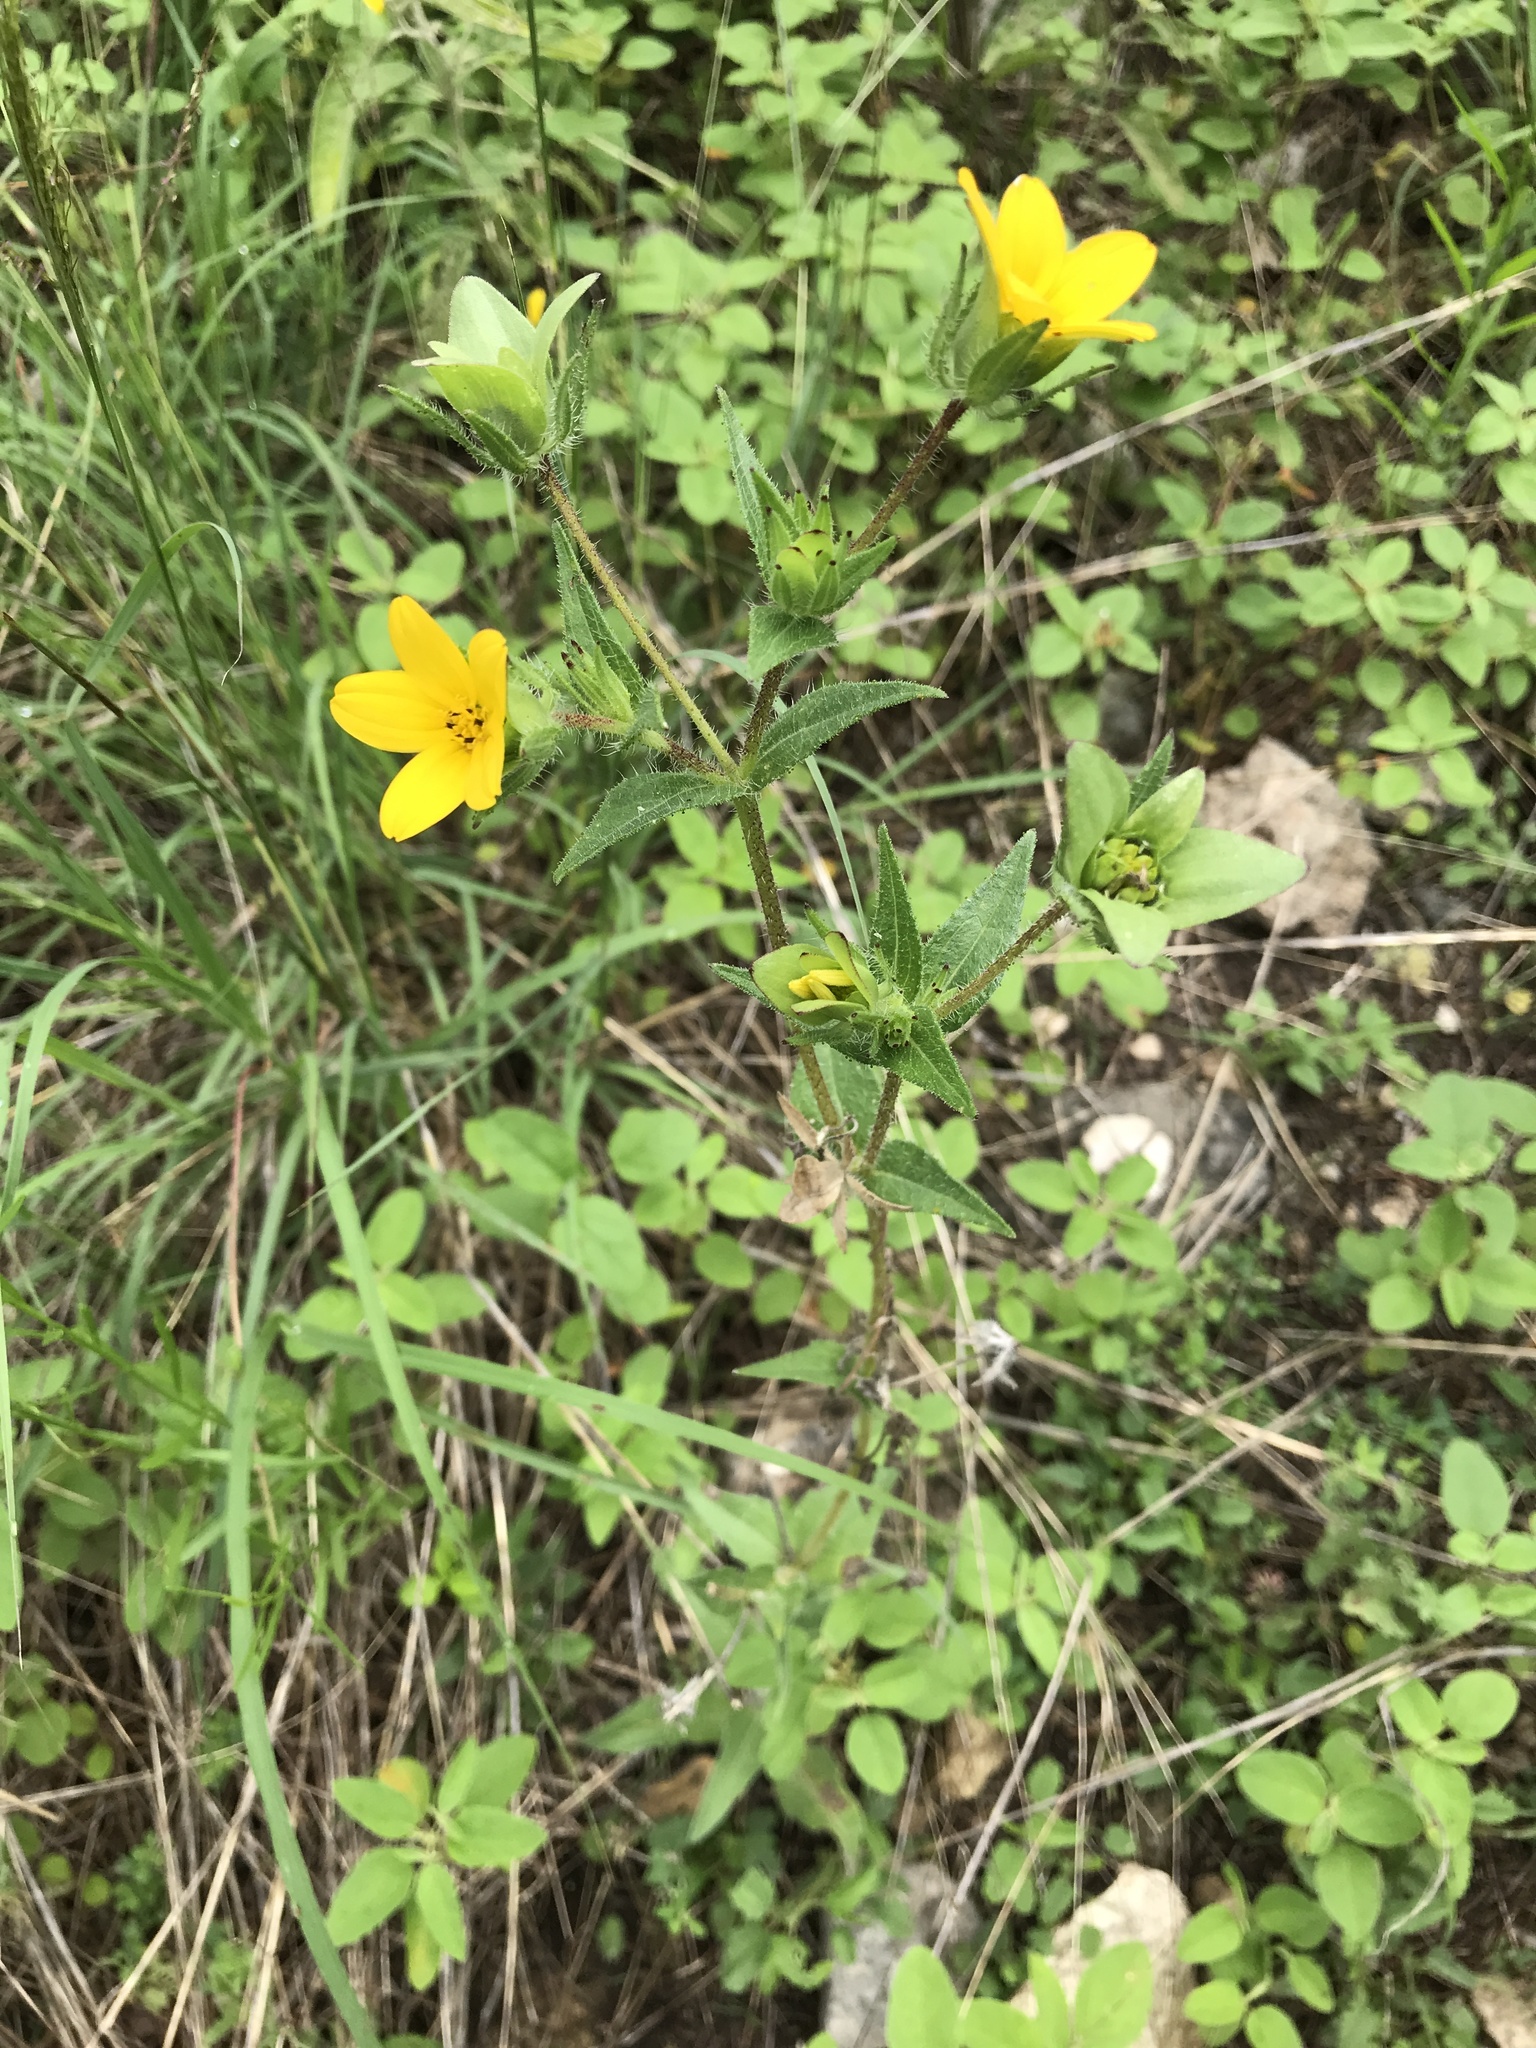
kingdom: Plantae
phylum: Tracheophyta
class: Magnoliopsida
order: Asterales
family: Asteraceae
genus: Lindheimera
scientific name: Lindheimera texana
